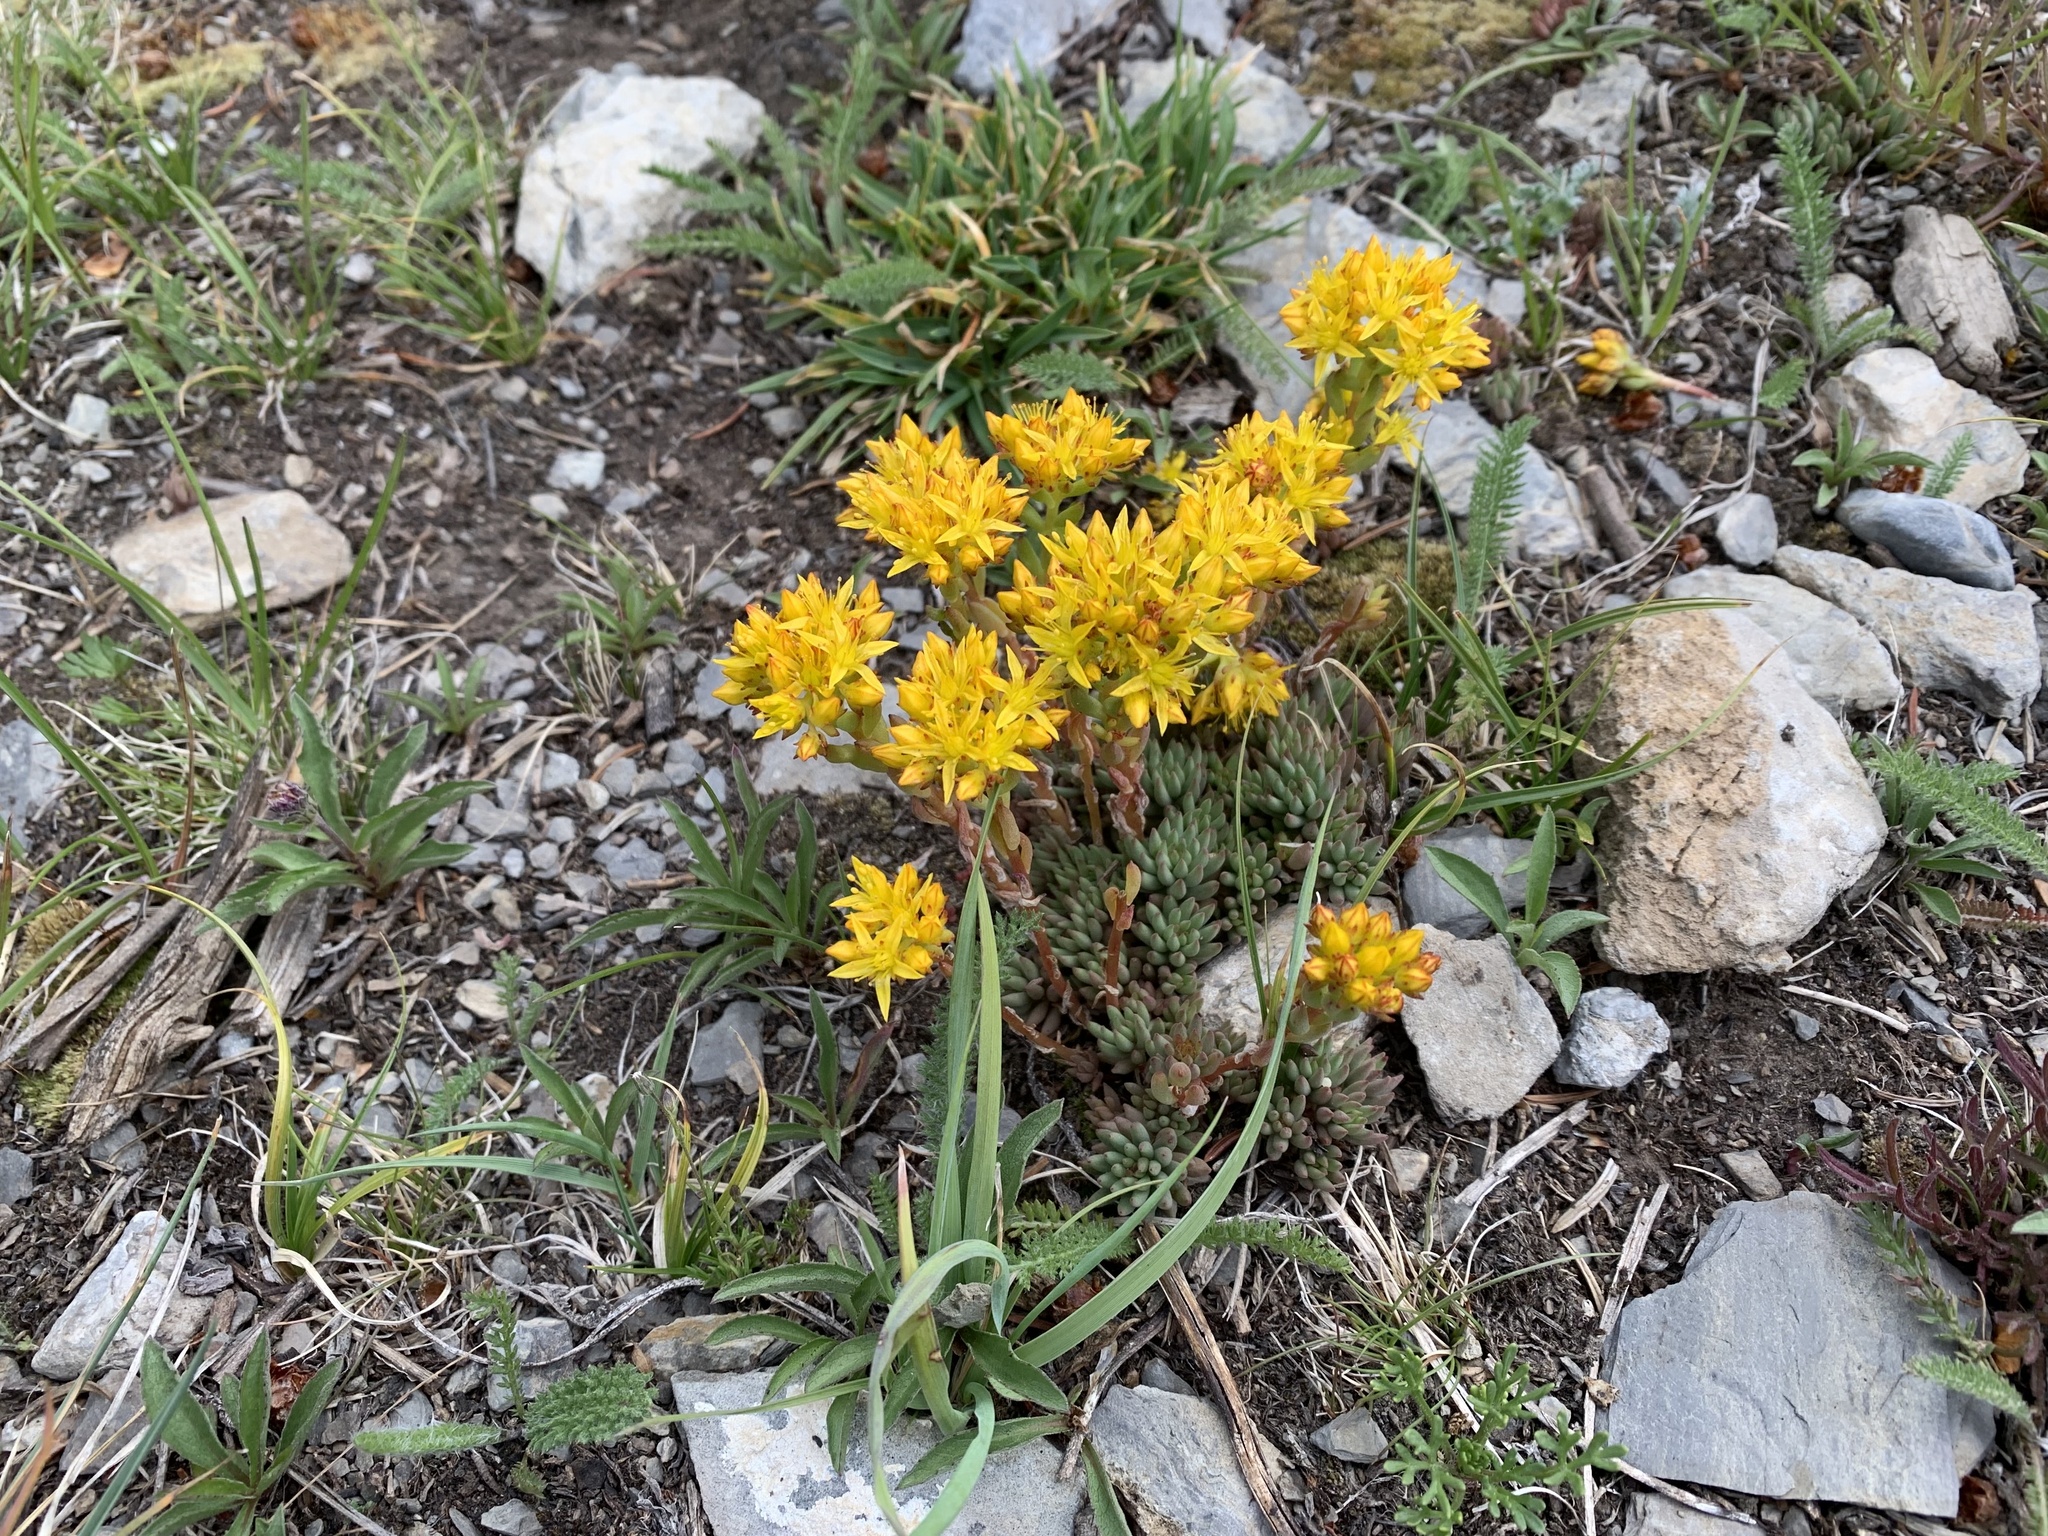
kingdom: Plantae
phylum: Tracheophyta
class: Magnoliopsida
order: Saxifragales
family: Crassulaceae
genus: Sedum
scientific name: Sedum lanceolatum
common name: Common stonecrop
